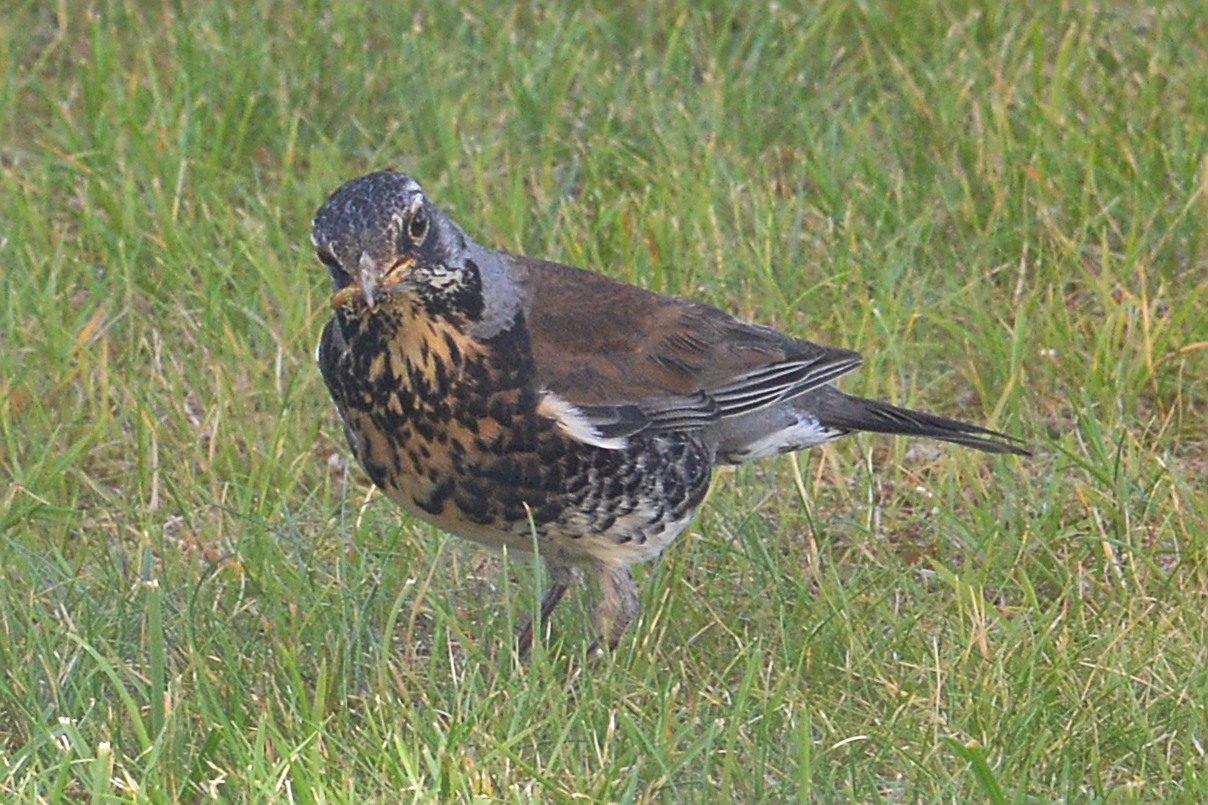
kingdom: Animalia
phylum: Chordata
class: Aves
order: Passeriformes
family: Turdidae
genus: Turdus
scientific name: Turdus pilaris
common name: Fieldfare
